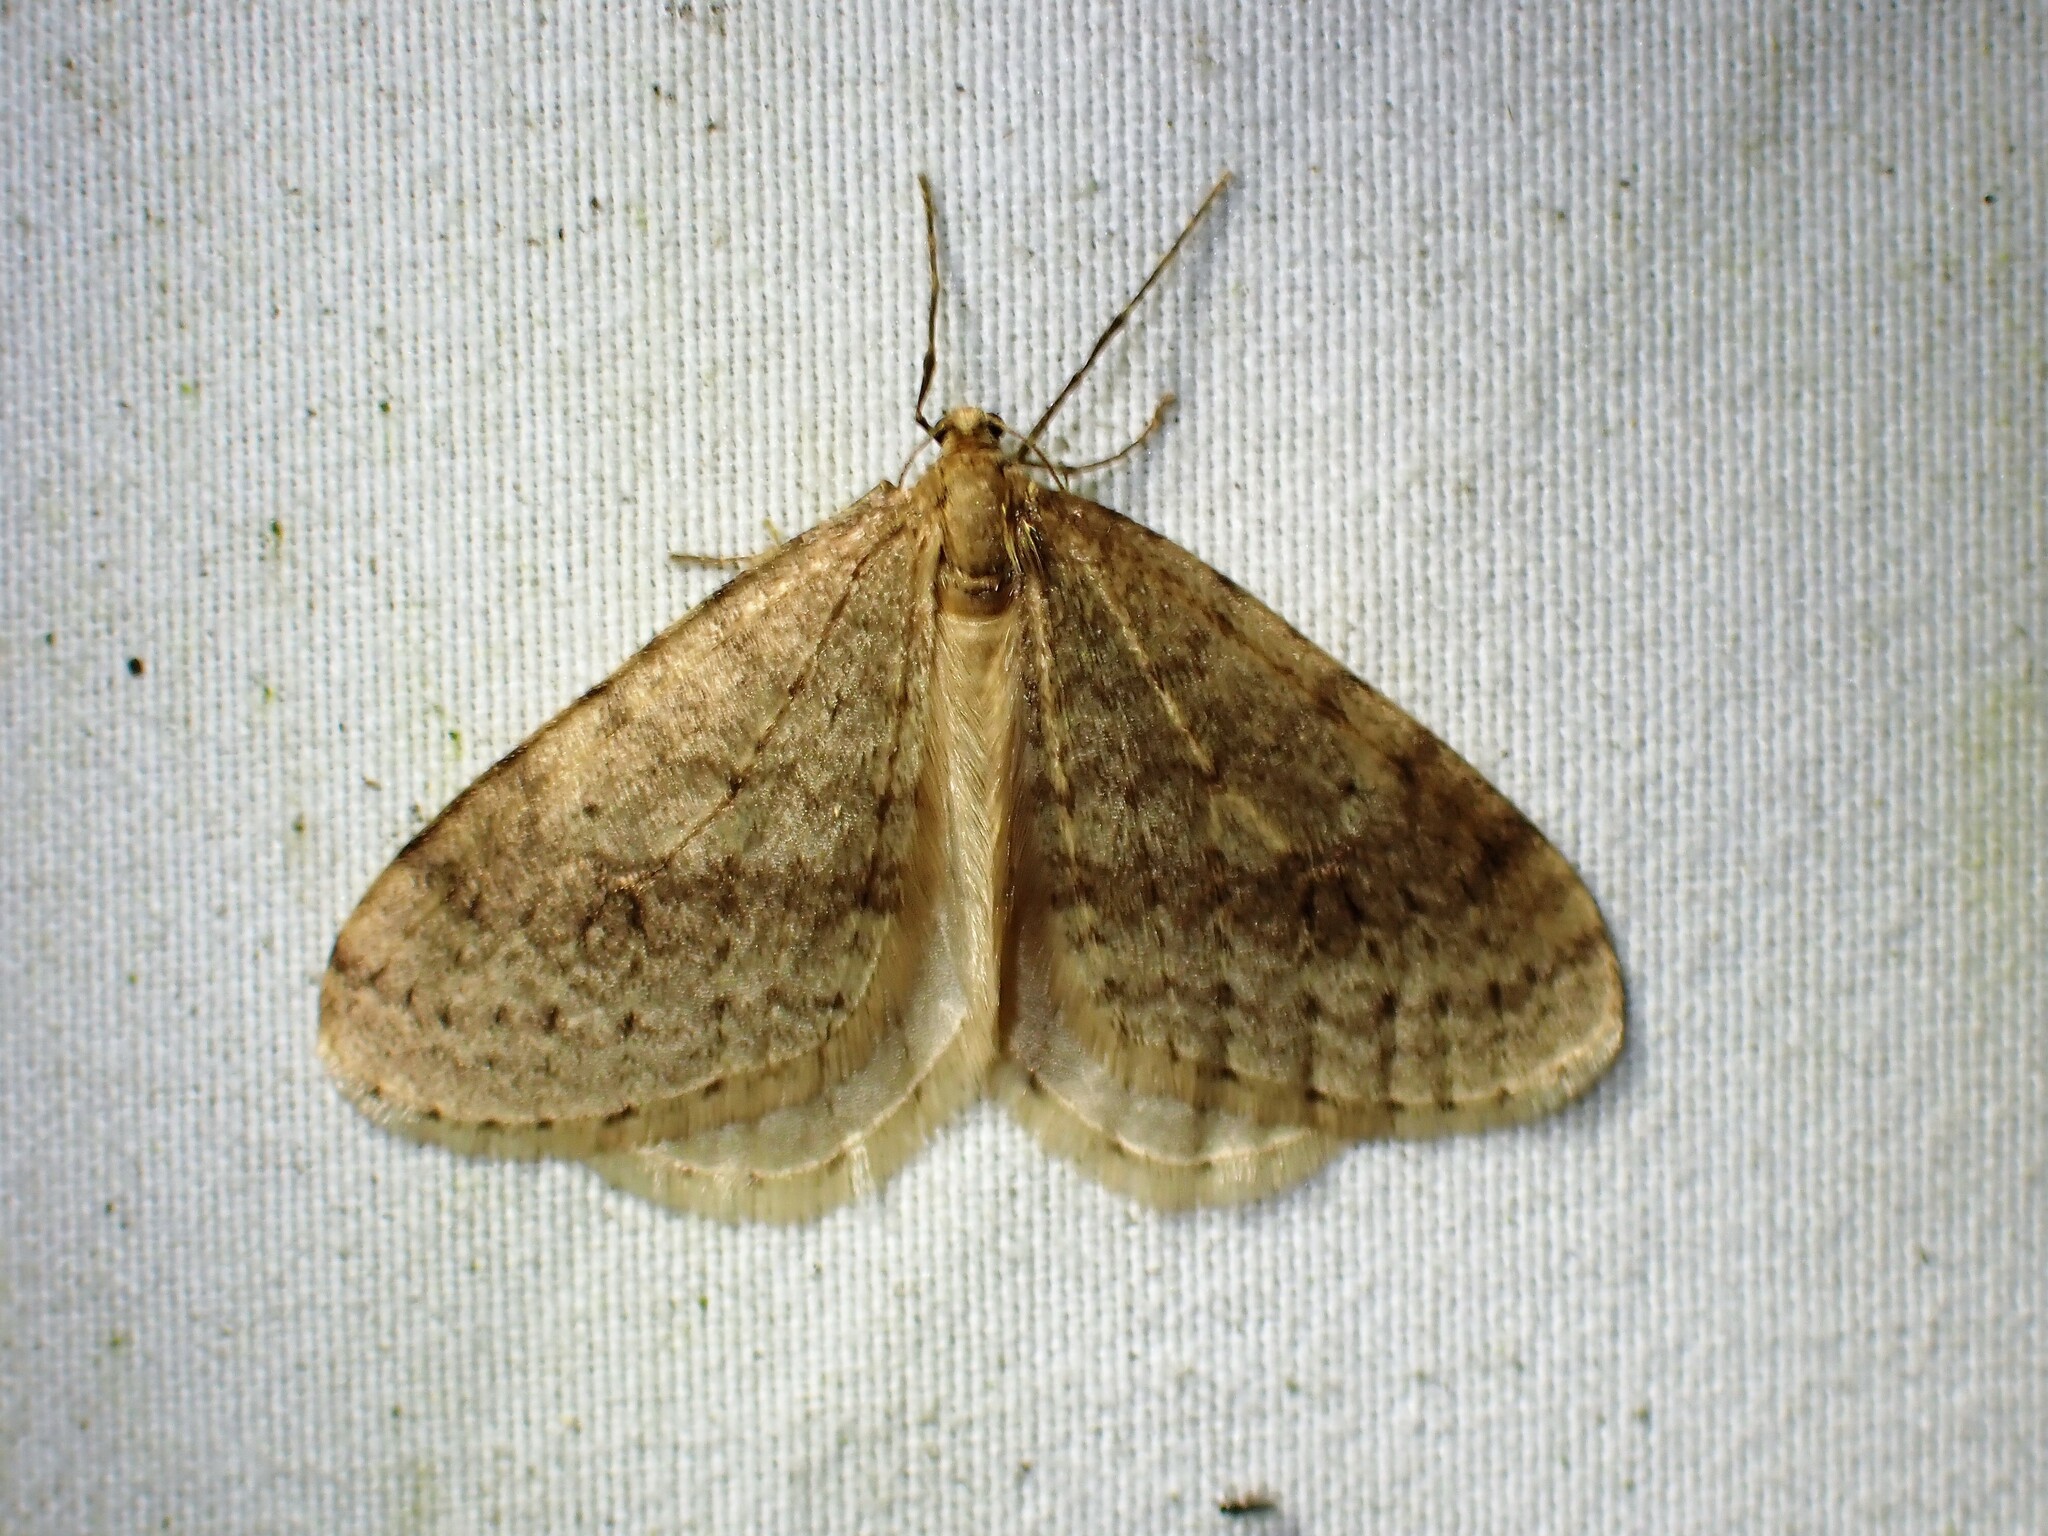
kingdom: Animalia
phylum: Arthropoda
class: Insecta
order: Lepidoptera
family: Geometridae
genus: Operophtera
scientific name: Operophtera bruceata
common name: Bruce spanworm
